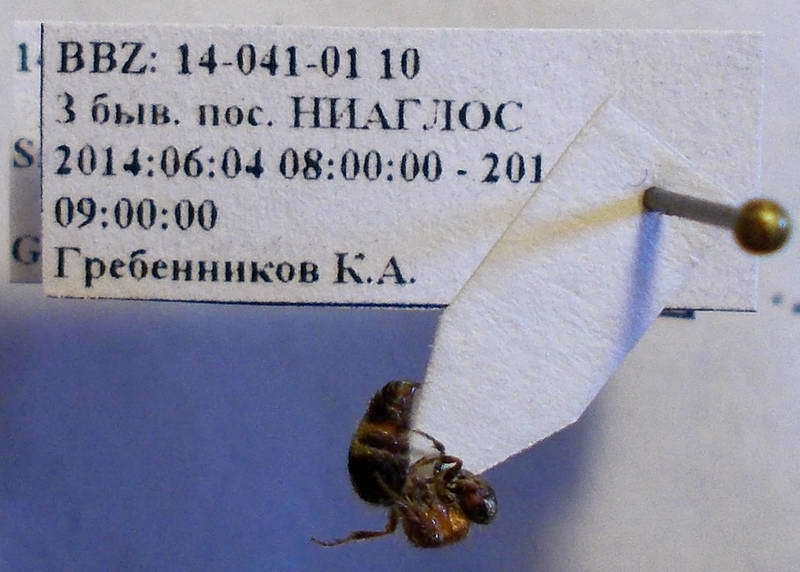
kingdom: Animalia
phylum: Arthropoda
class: Insecta
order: Hymenoptera
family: Mutillidae
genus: Smicromyrme
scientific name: Smicromyrme rufipes
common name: Small velvet ant
